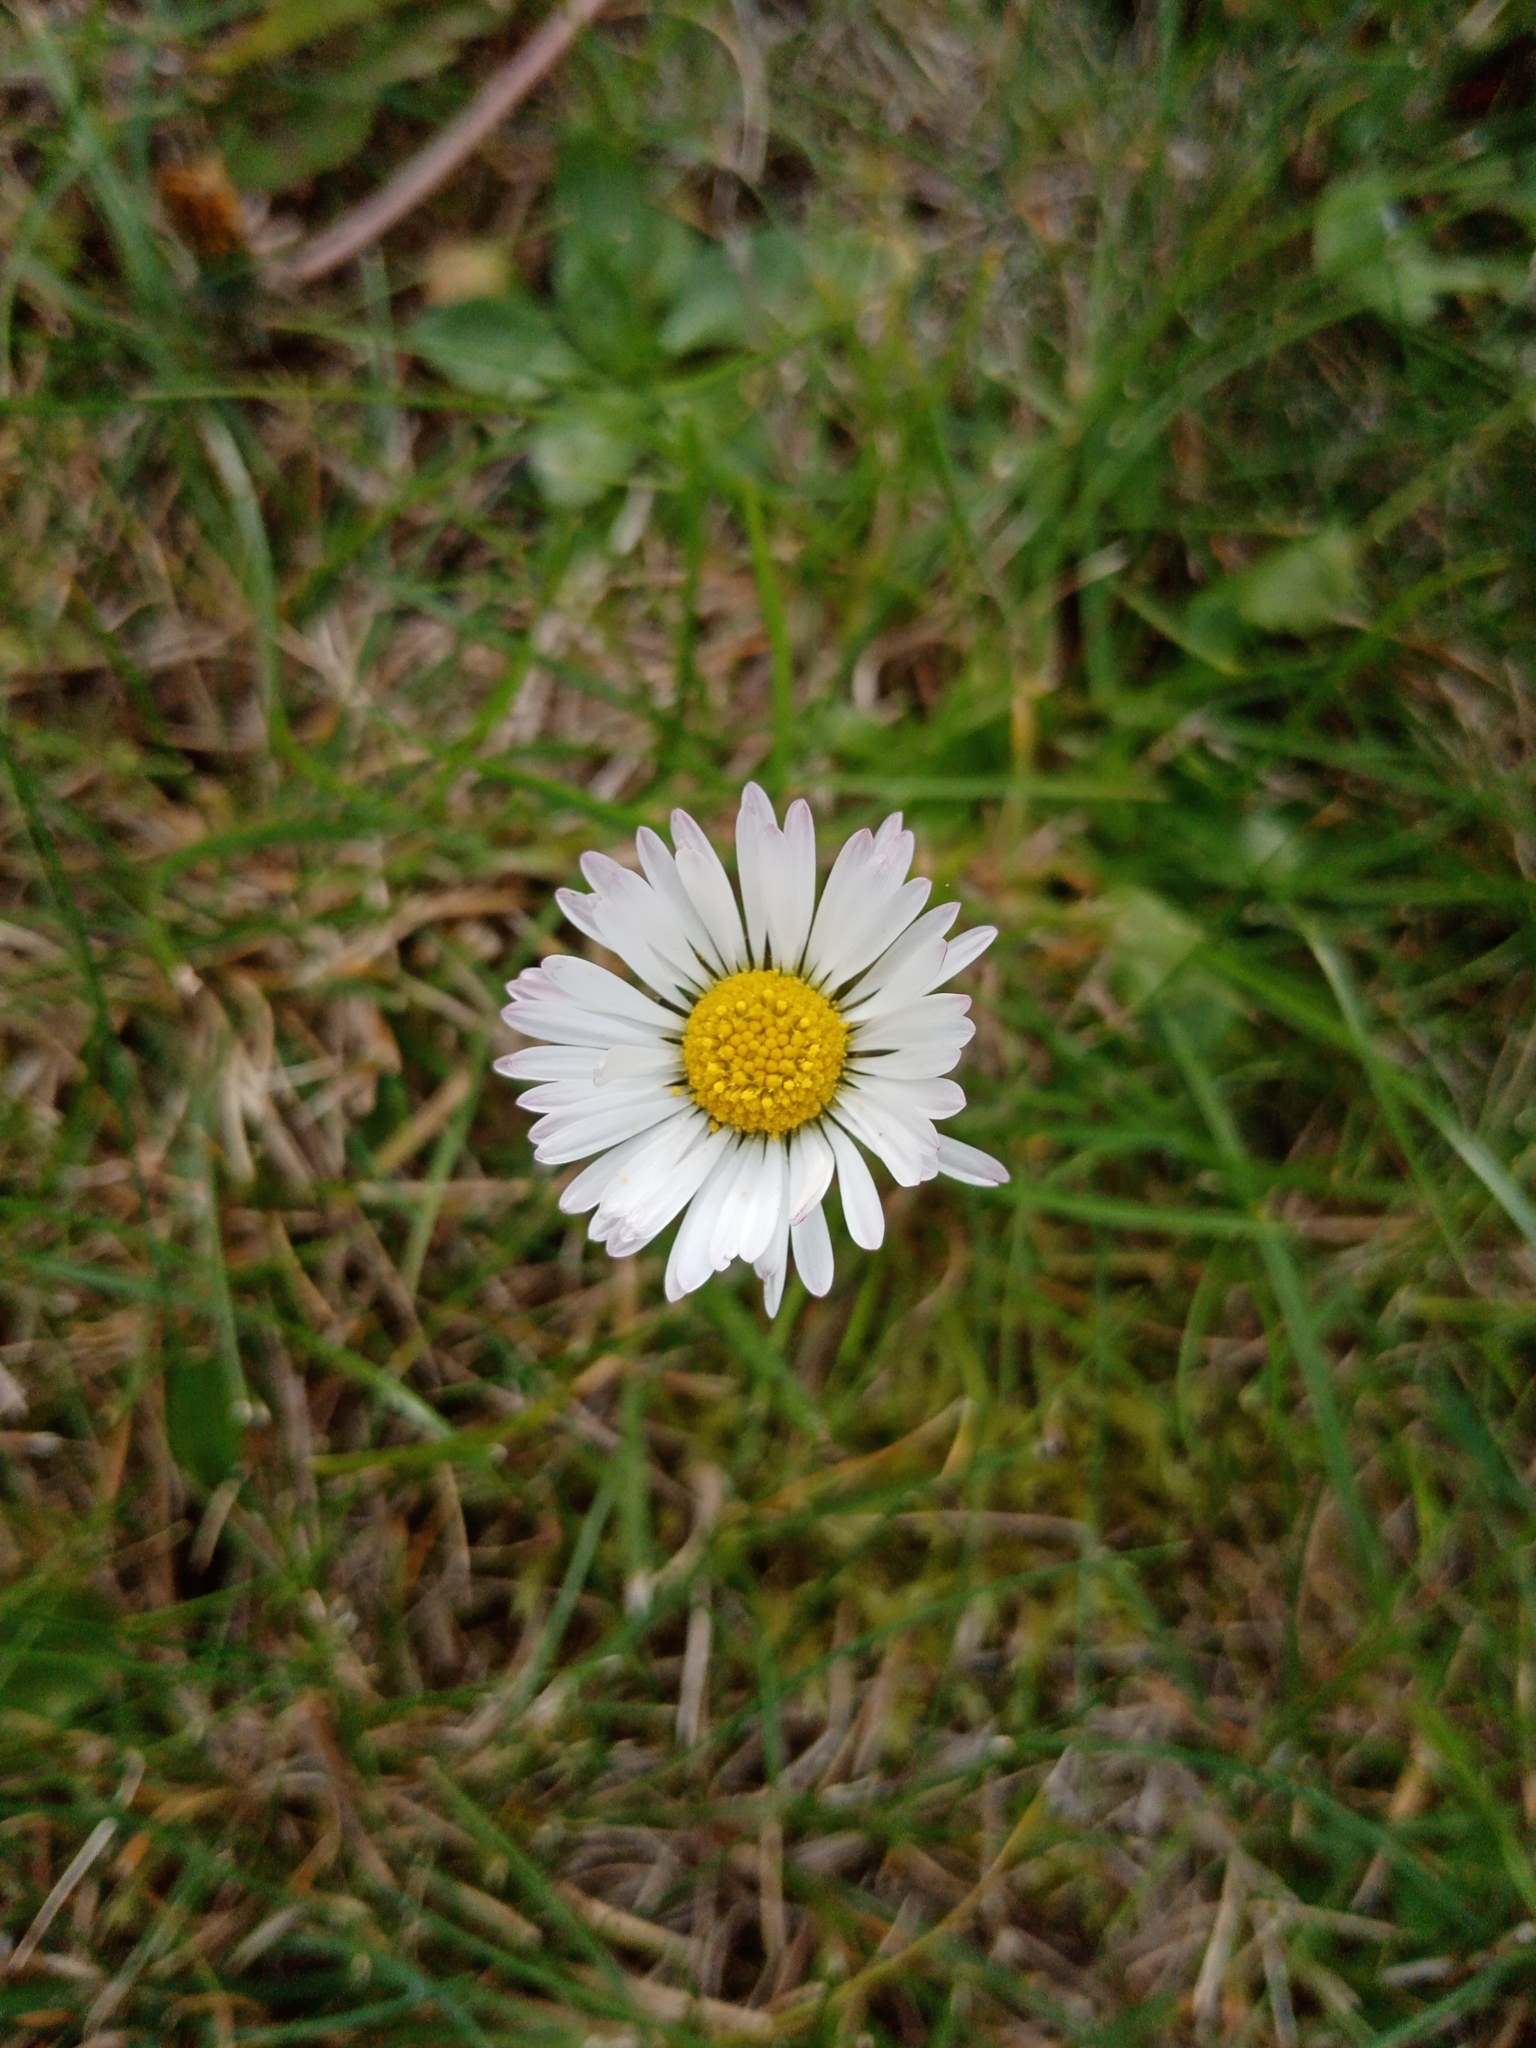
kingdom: Plantae
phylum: Tracheophyta
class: Magnoliopsida
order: Asterales
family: Asteraceae
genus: Bellis
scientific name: Bellis perennis
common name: Lawndaisy
